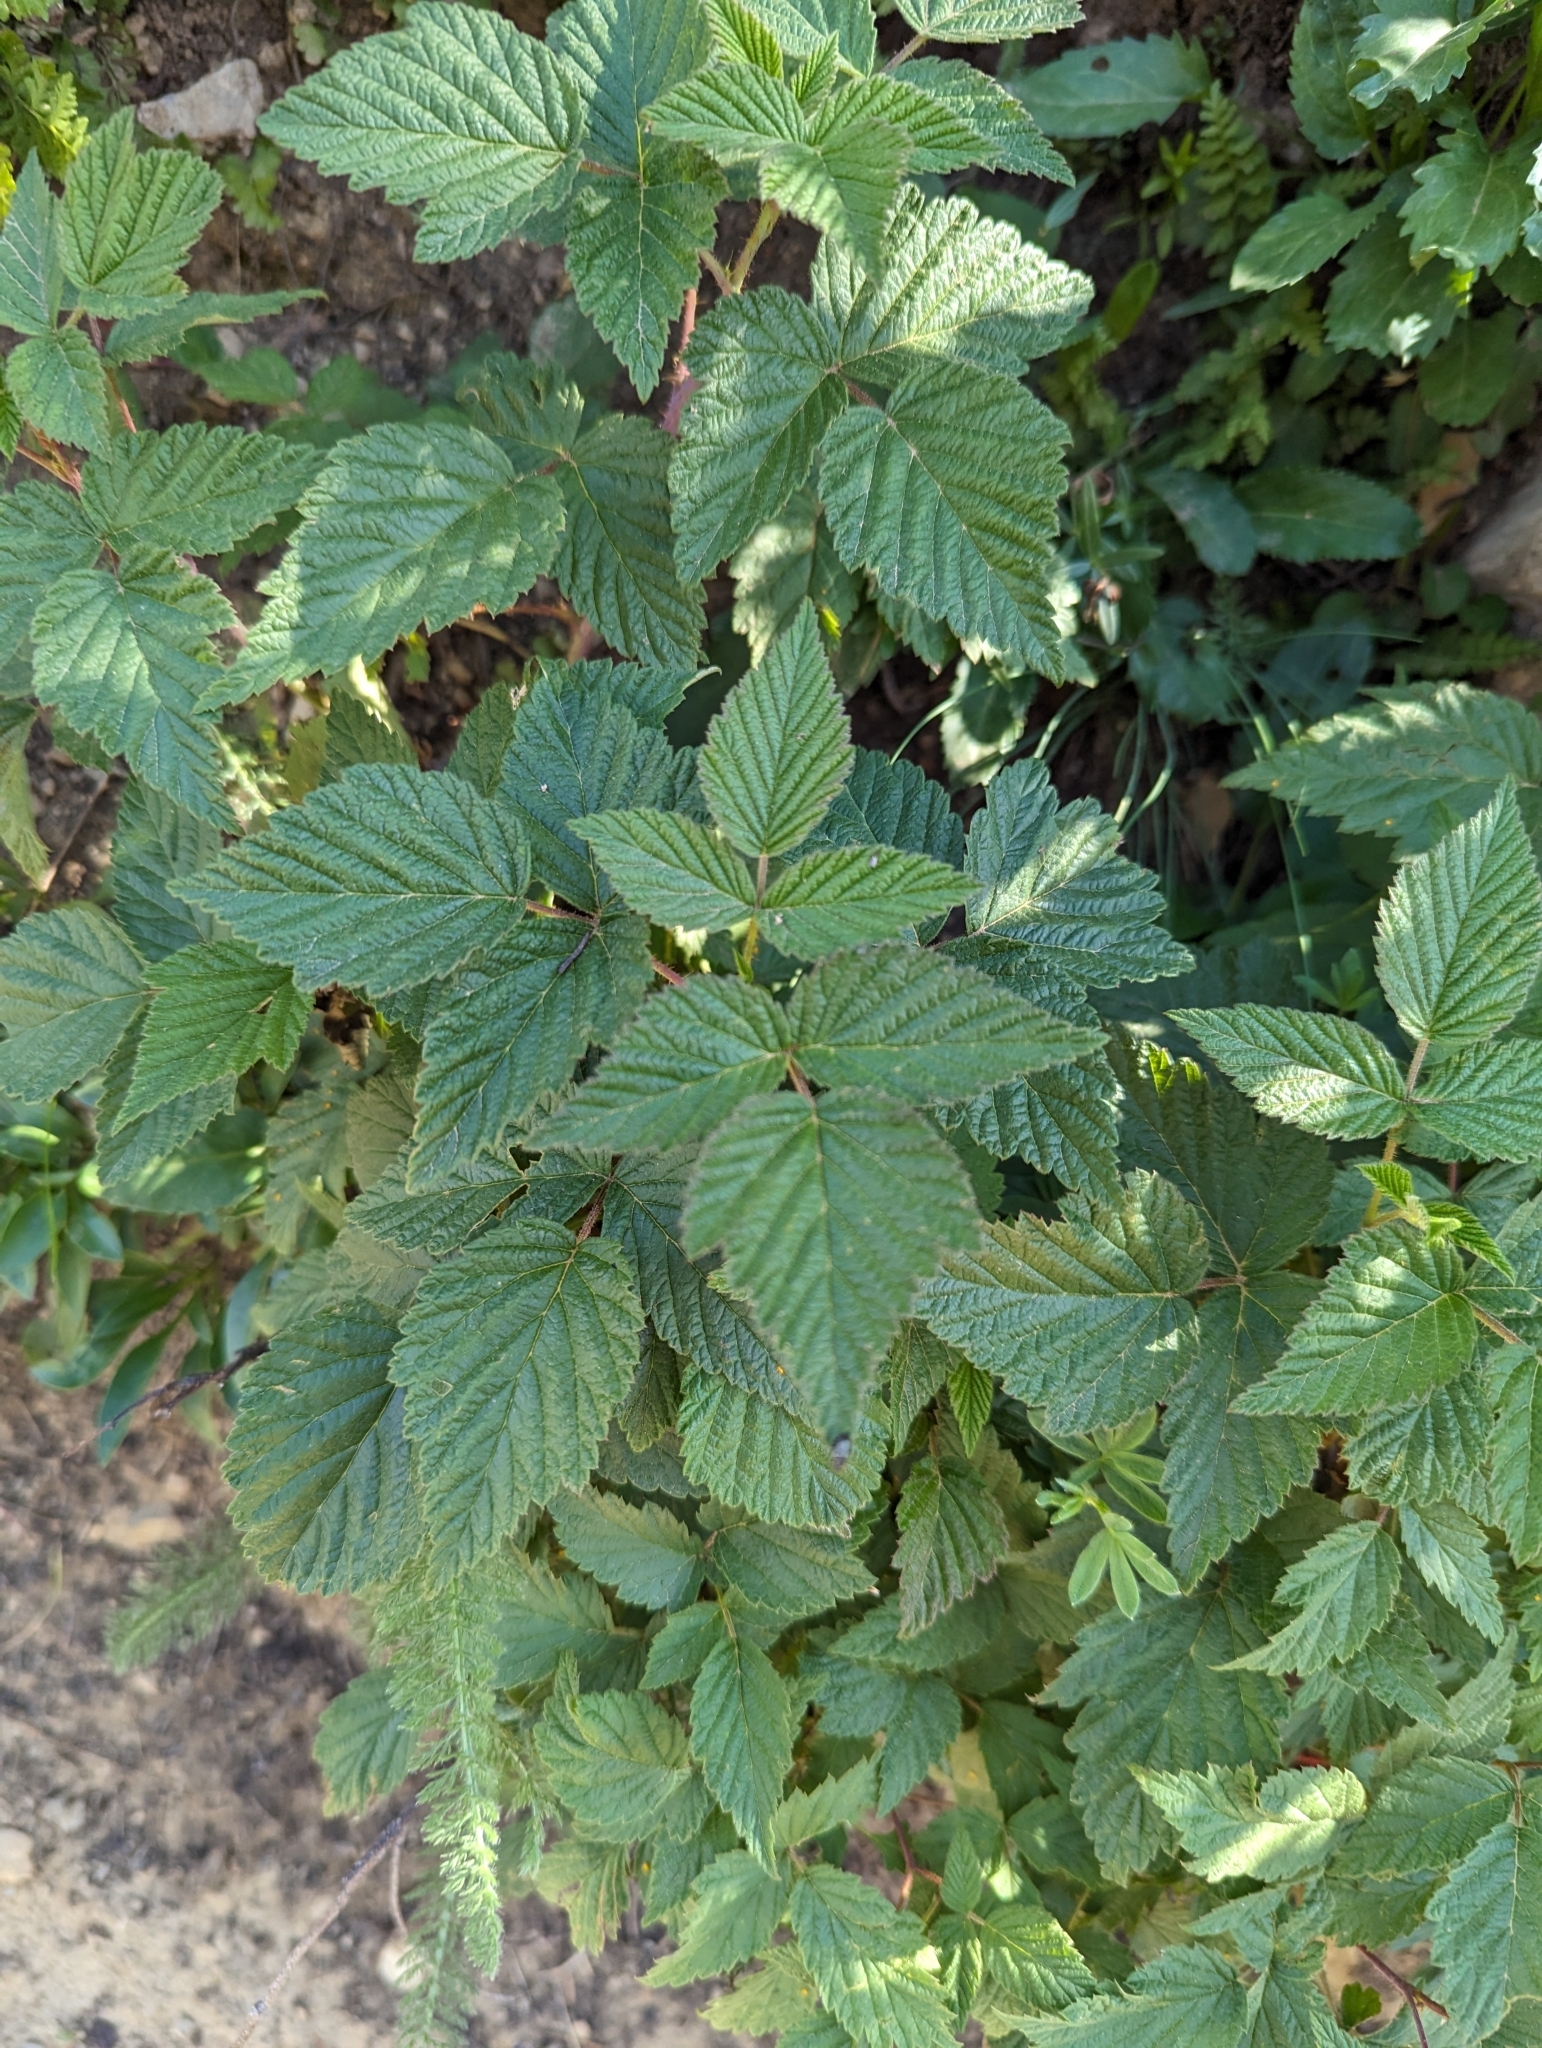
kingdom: Plantae
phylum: Tracheophyta
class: Magnoliopsida
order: Rosales
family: Rosaceae
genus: Rubus
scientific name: Rubus idaeus
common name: Raspberry
